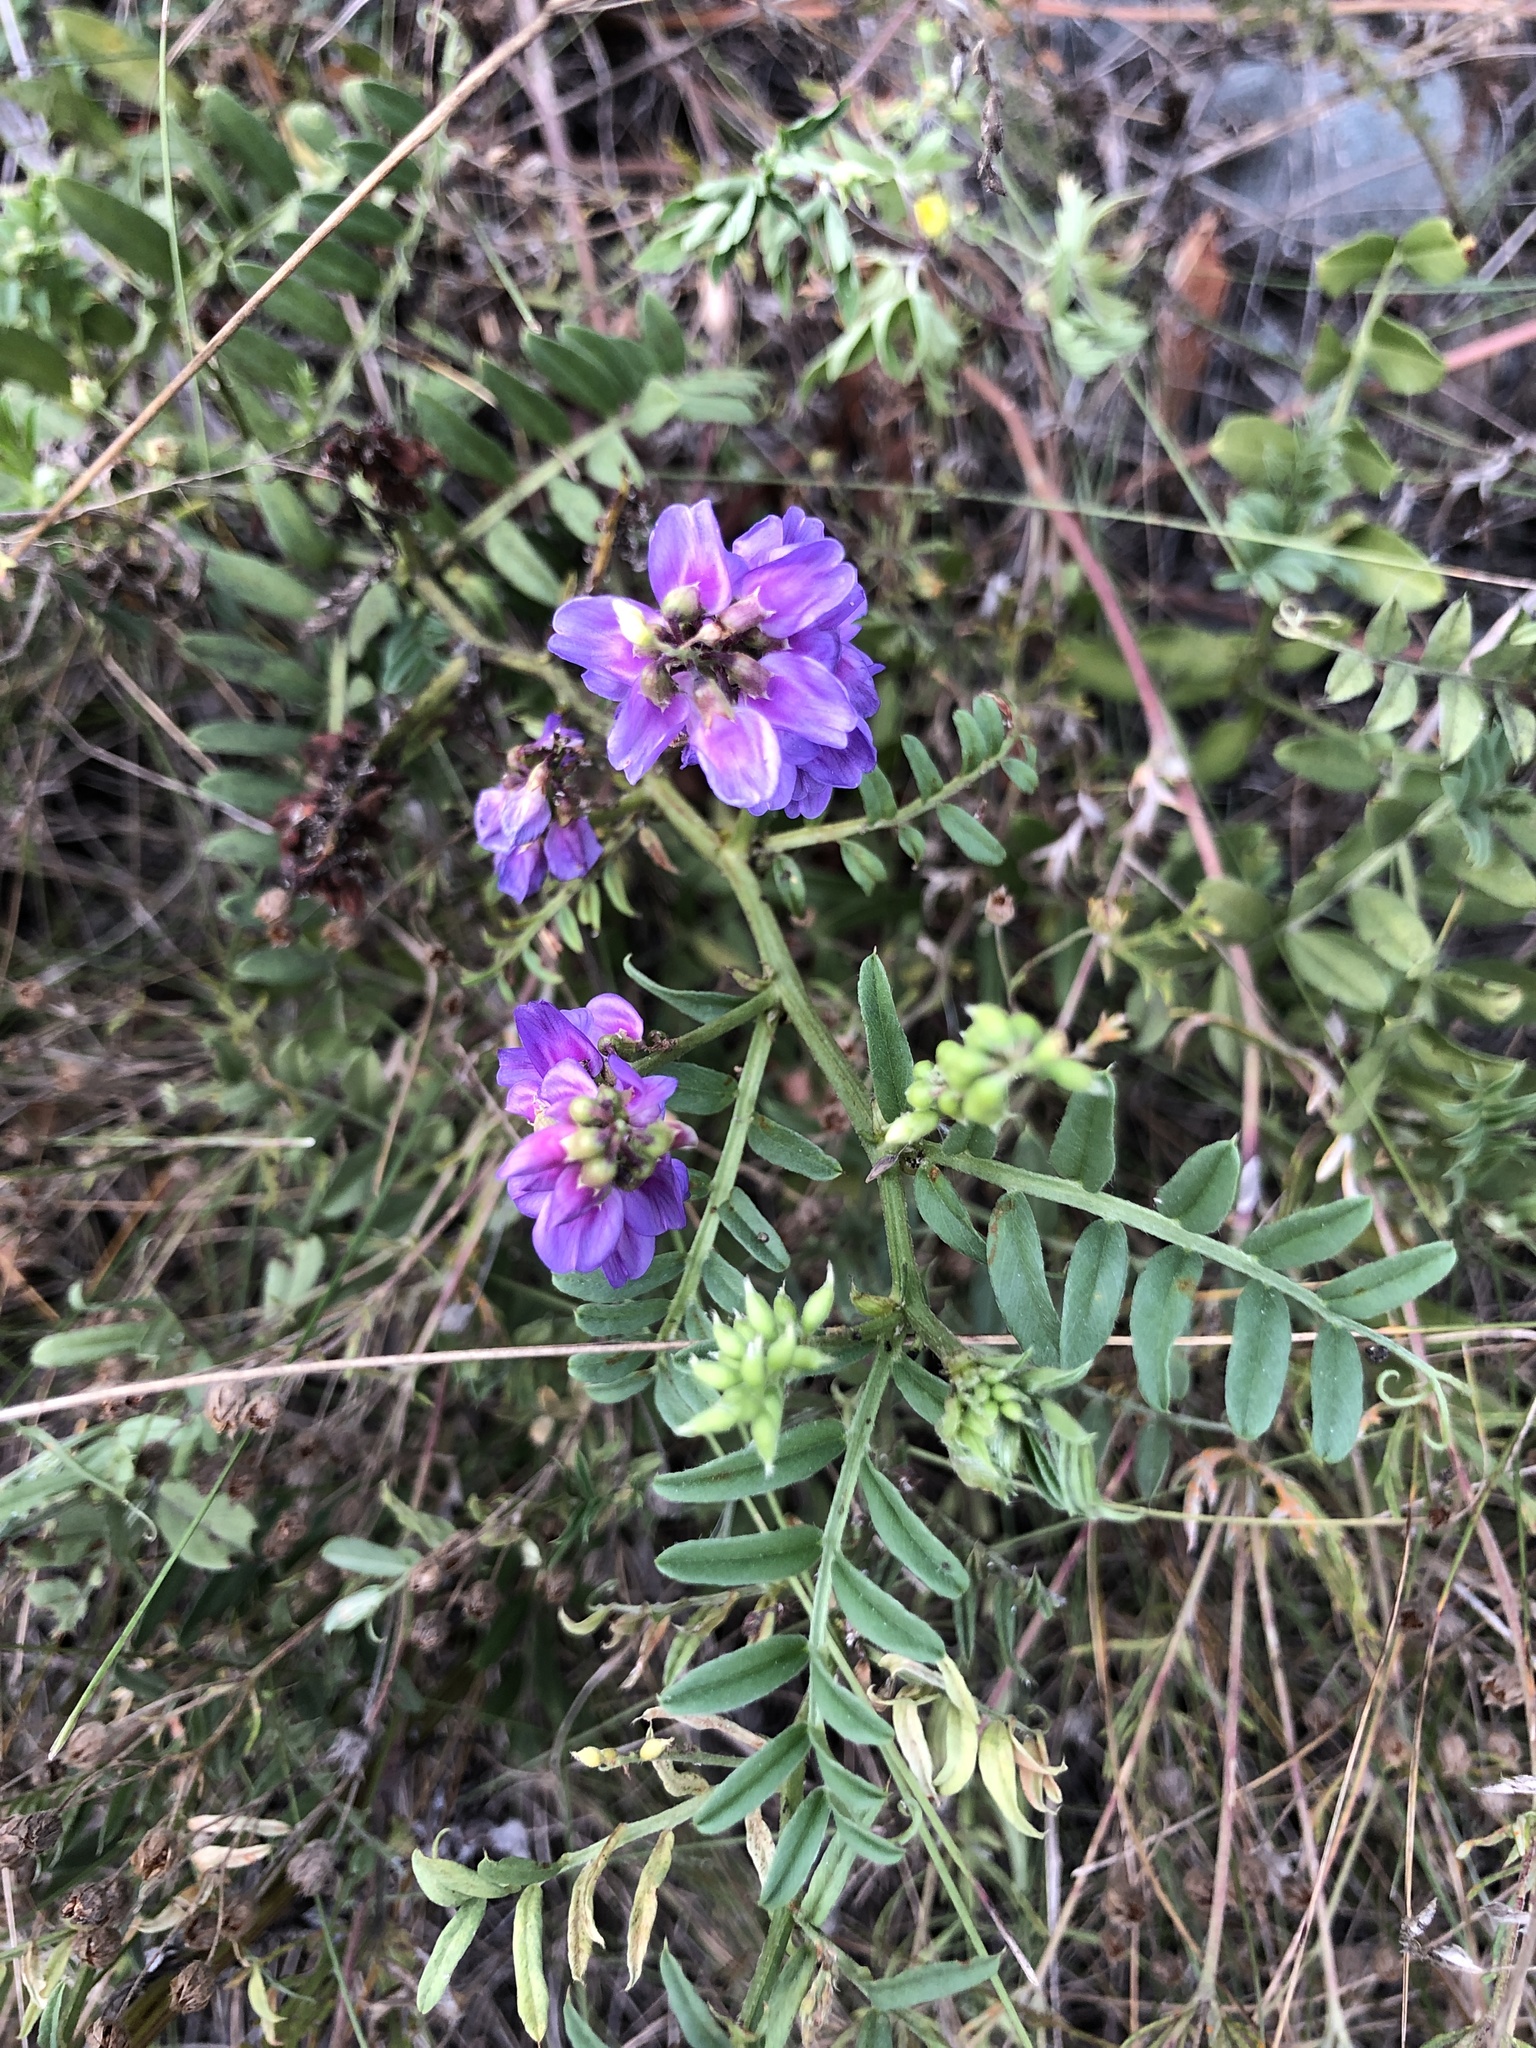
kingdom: Plantae
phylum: Tracheophyta
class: Magnoliopsida
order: Fabales
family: Fabaceae
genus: Vicia
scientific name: Vicia amoena
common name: Cheder ebs
